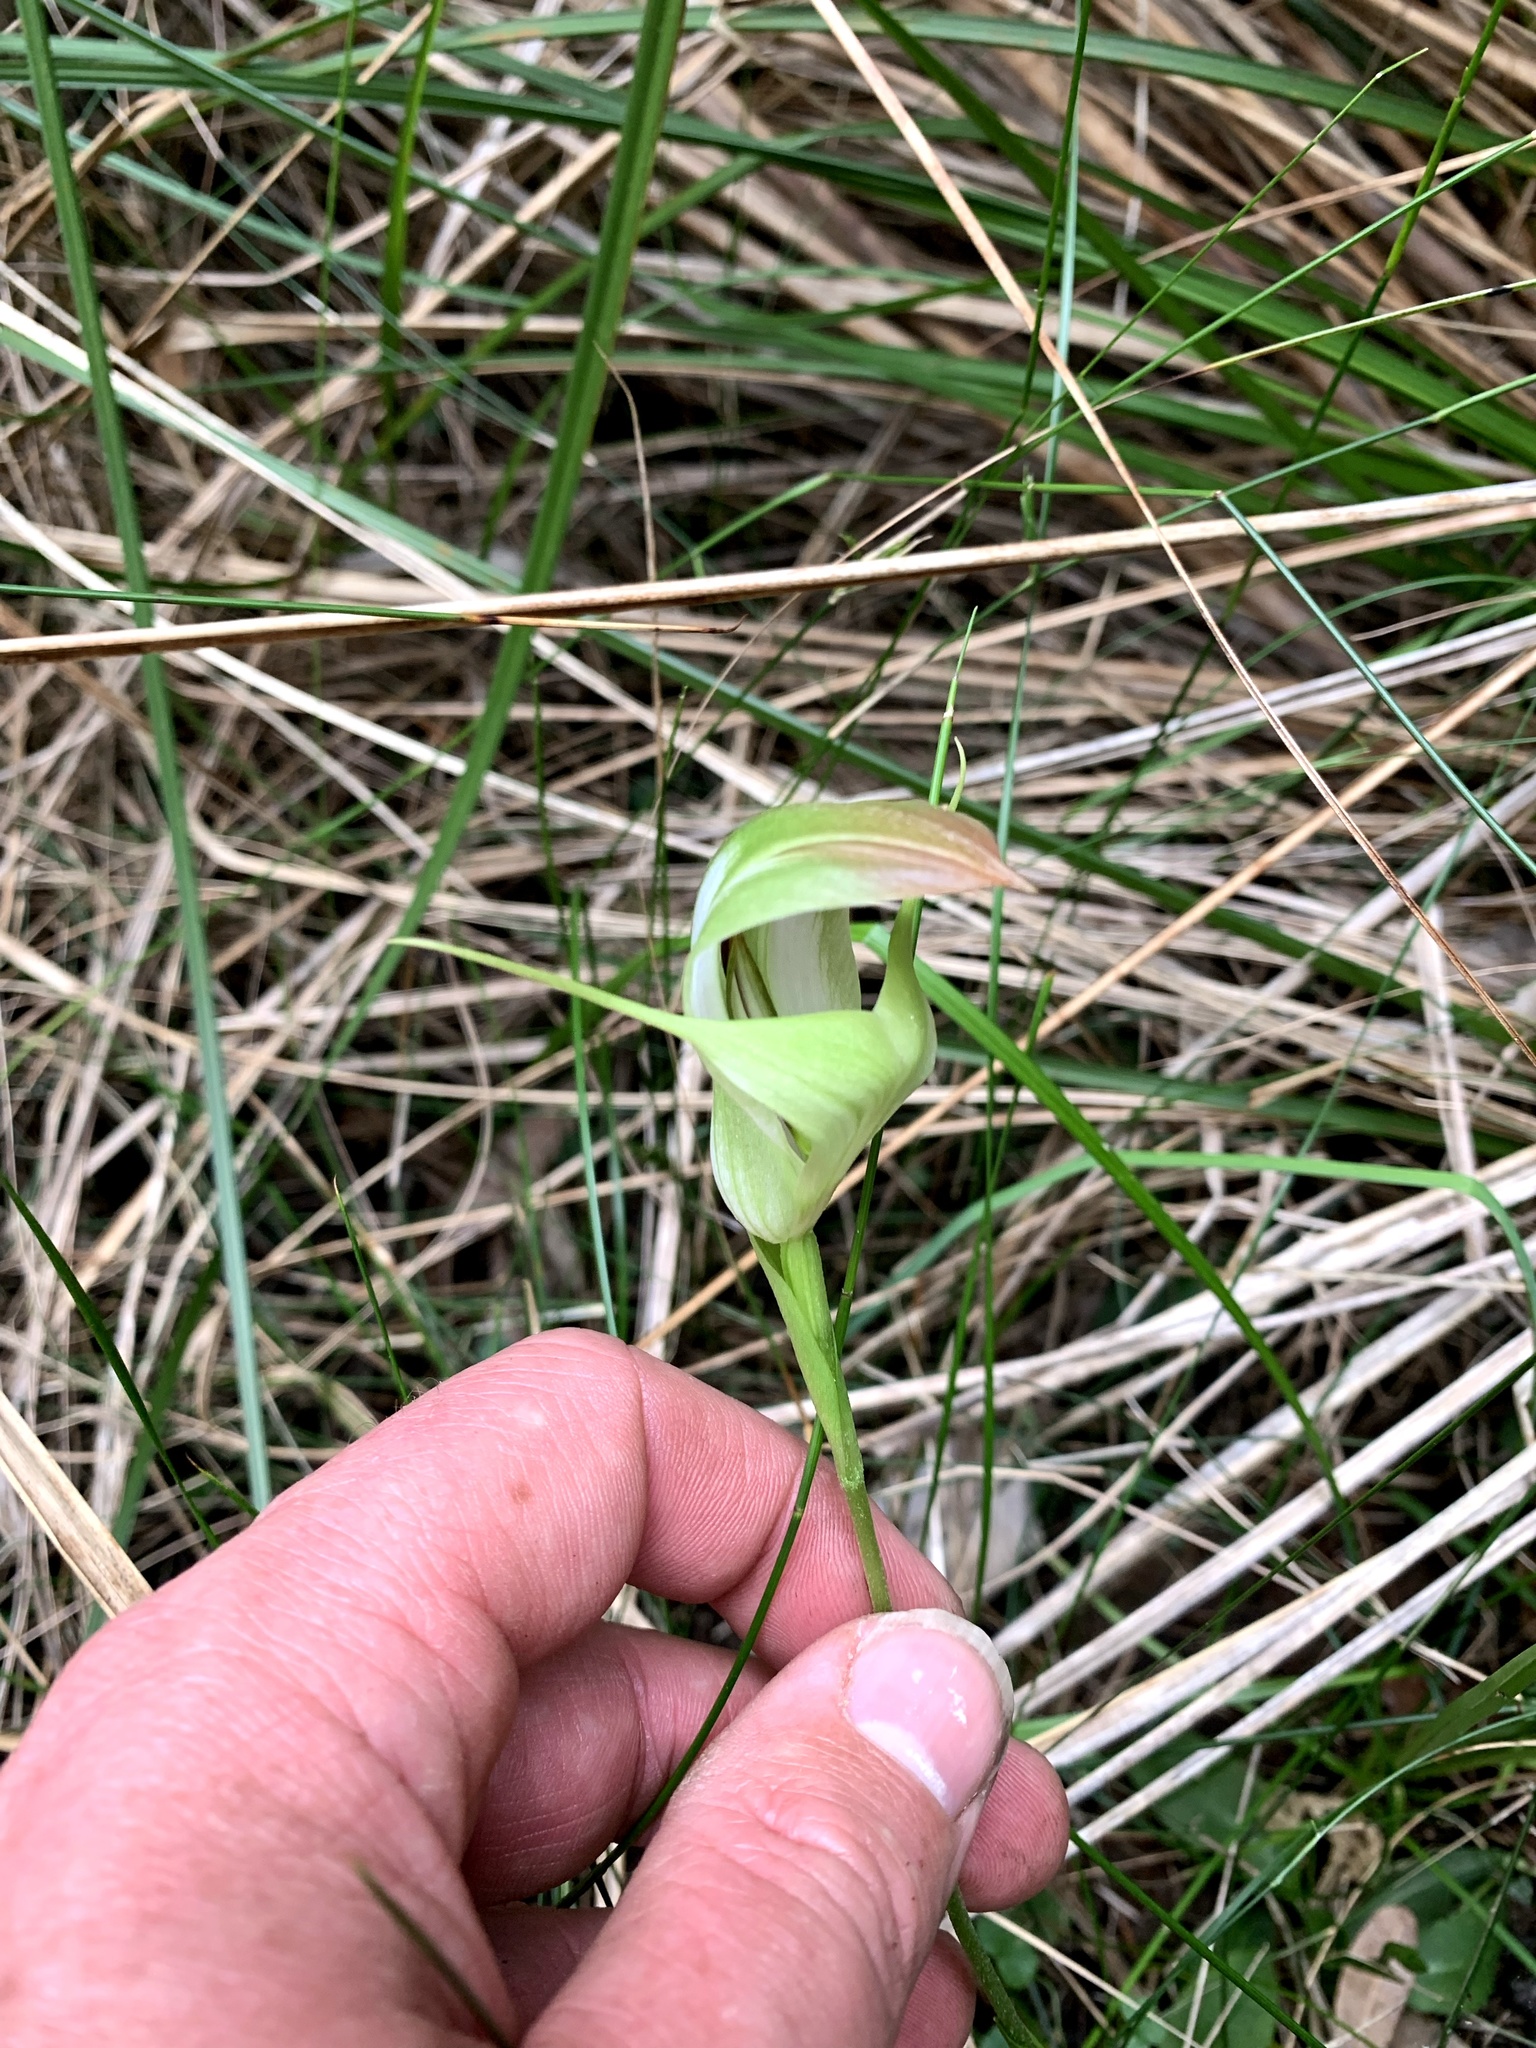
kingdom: Plantae
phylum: Tracheophyta
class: Liliopsida
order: Asparagales
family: Orchidaceae
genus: Pterostylis
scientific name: Pterostylis baptistii
